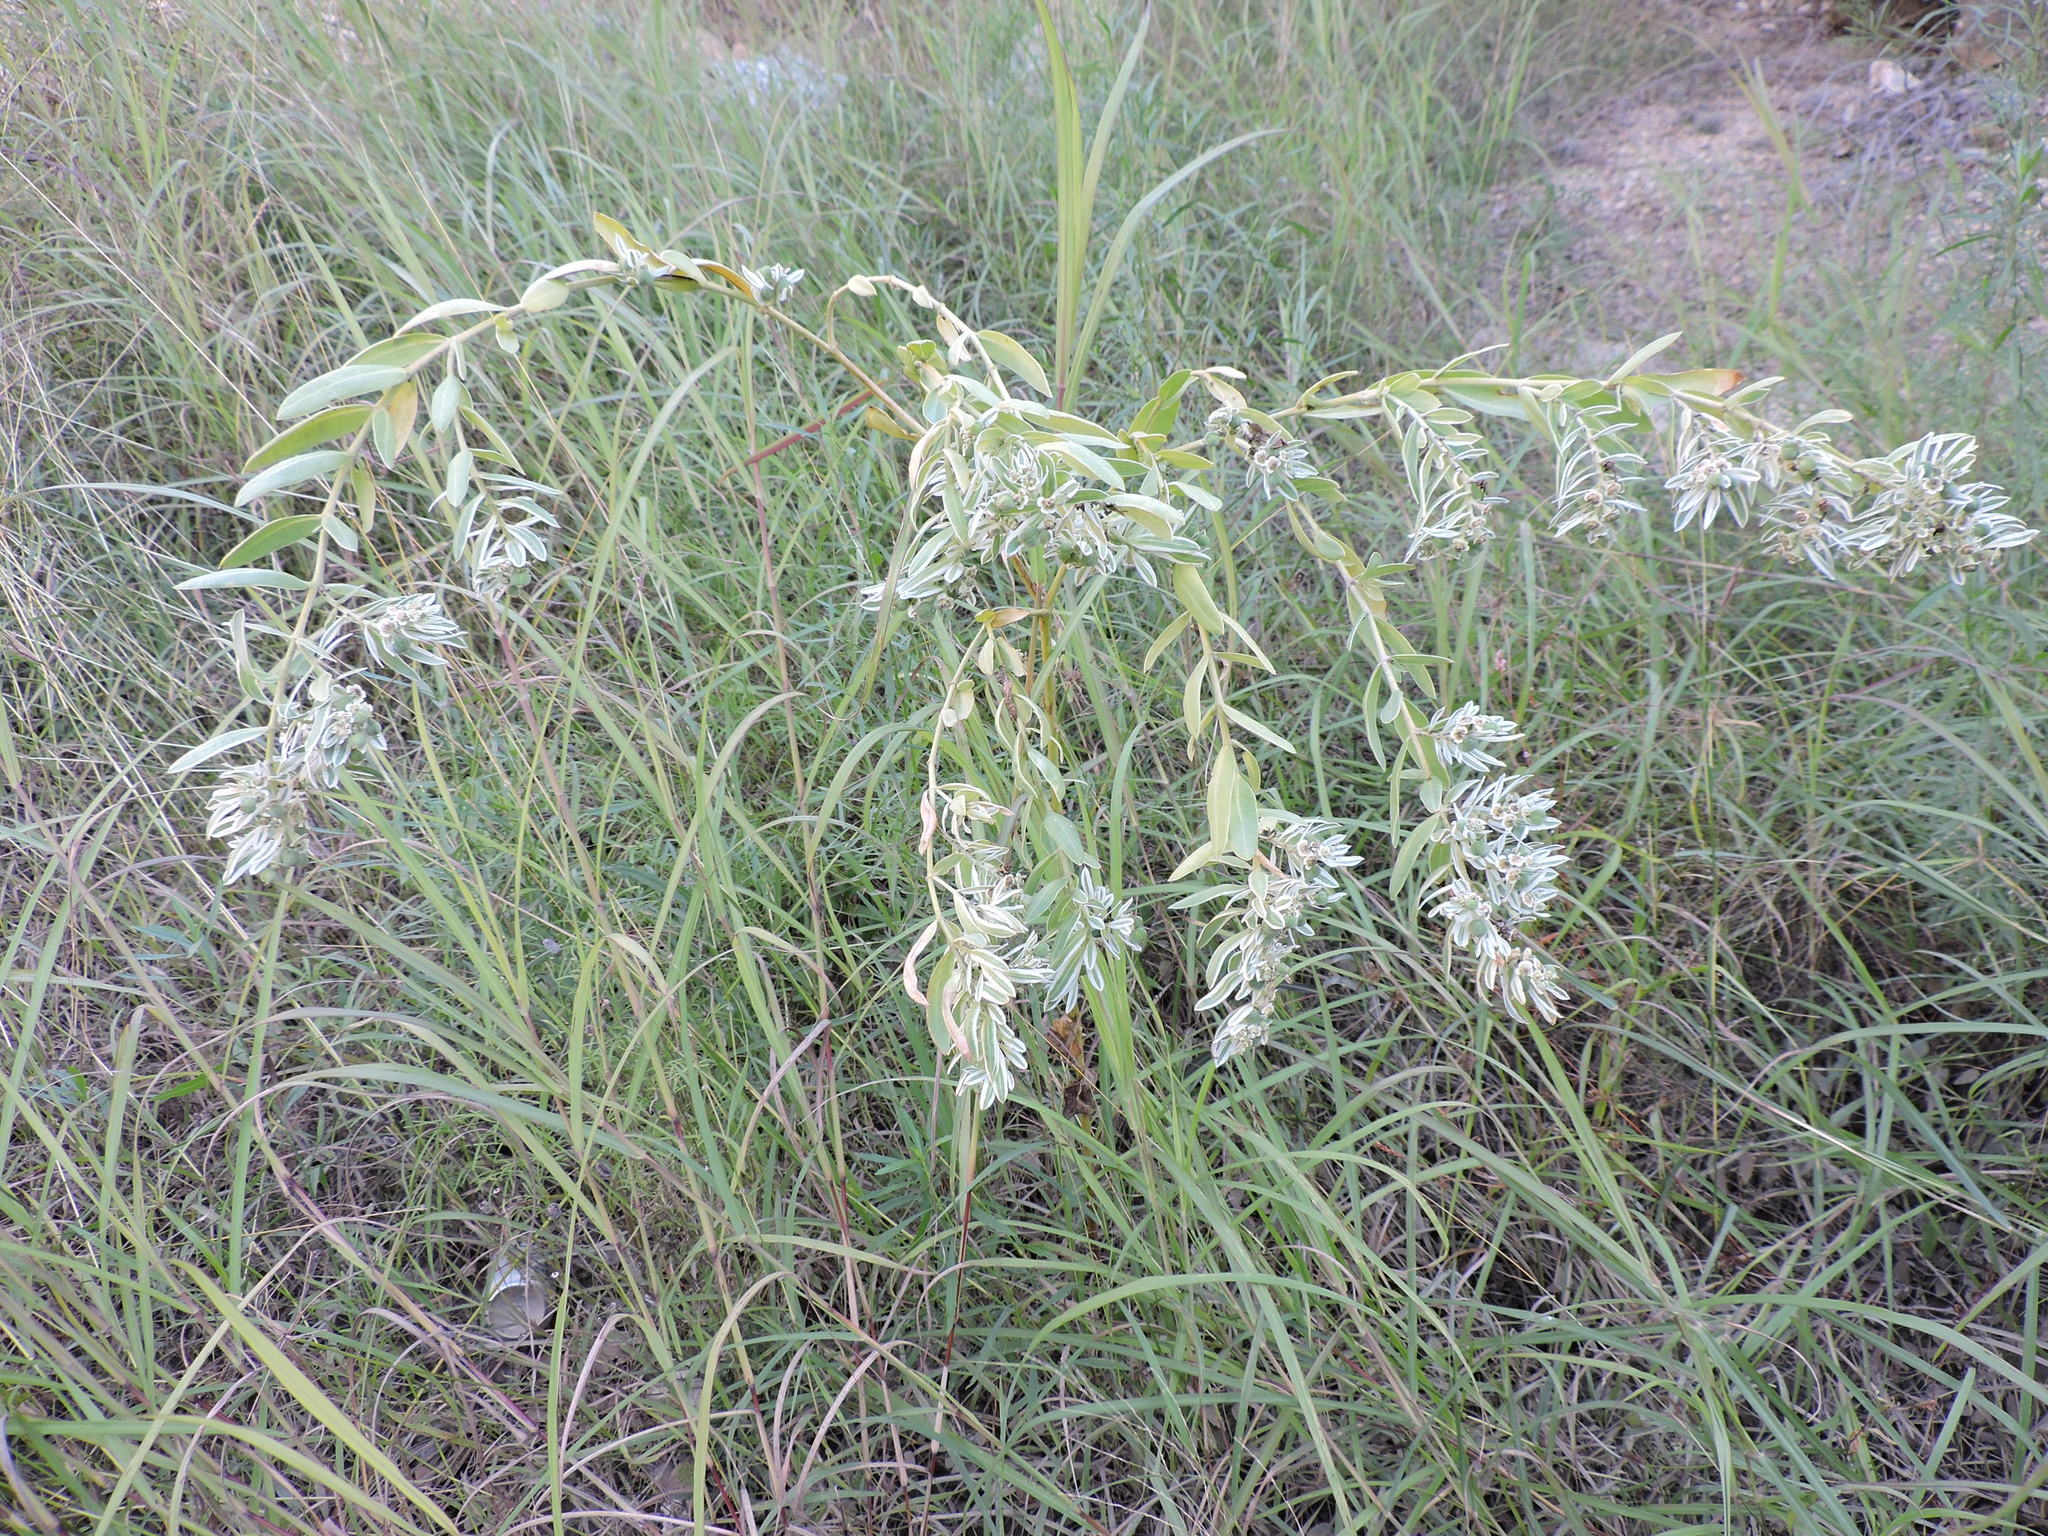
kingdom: Plantae
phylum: Tracheophyta
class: Magnoliopsida
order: Malpighiales
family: Euphorbiaceae
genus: Euphorbia
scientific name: Euphorbia marginata
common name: Ghostweed
